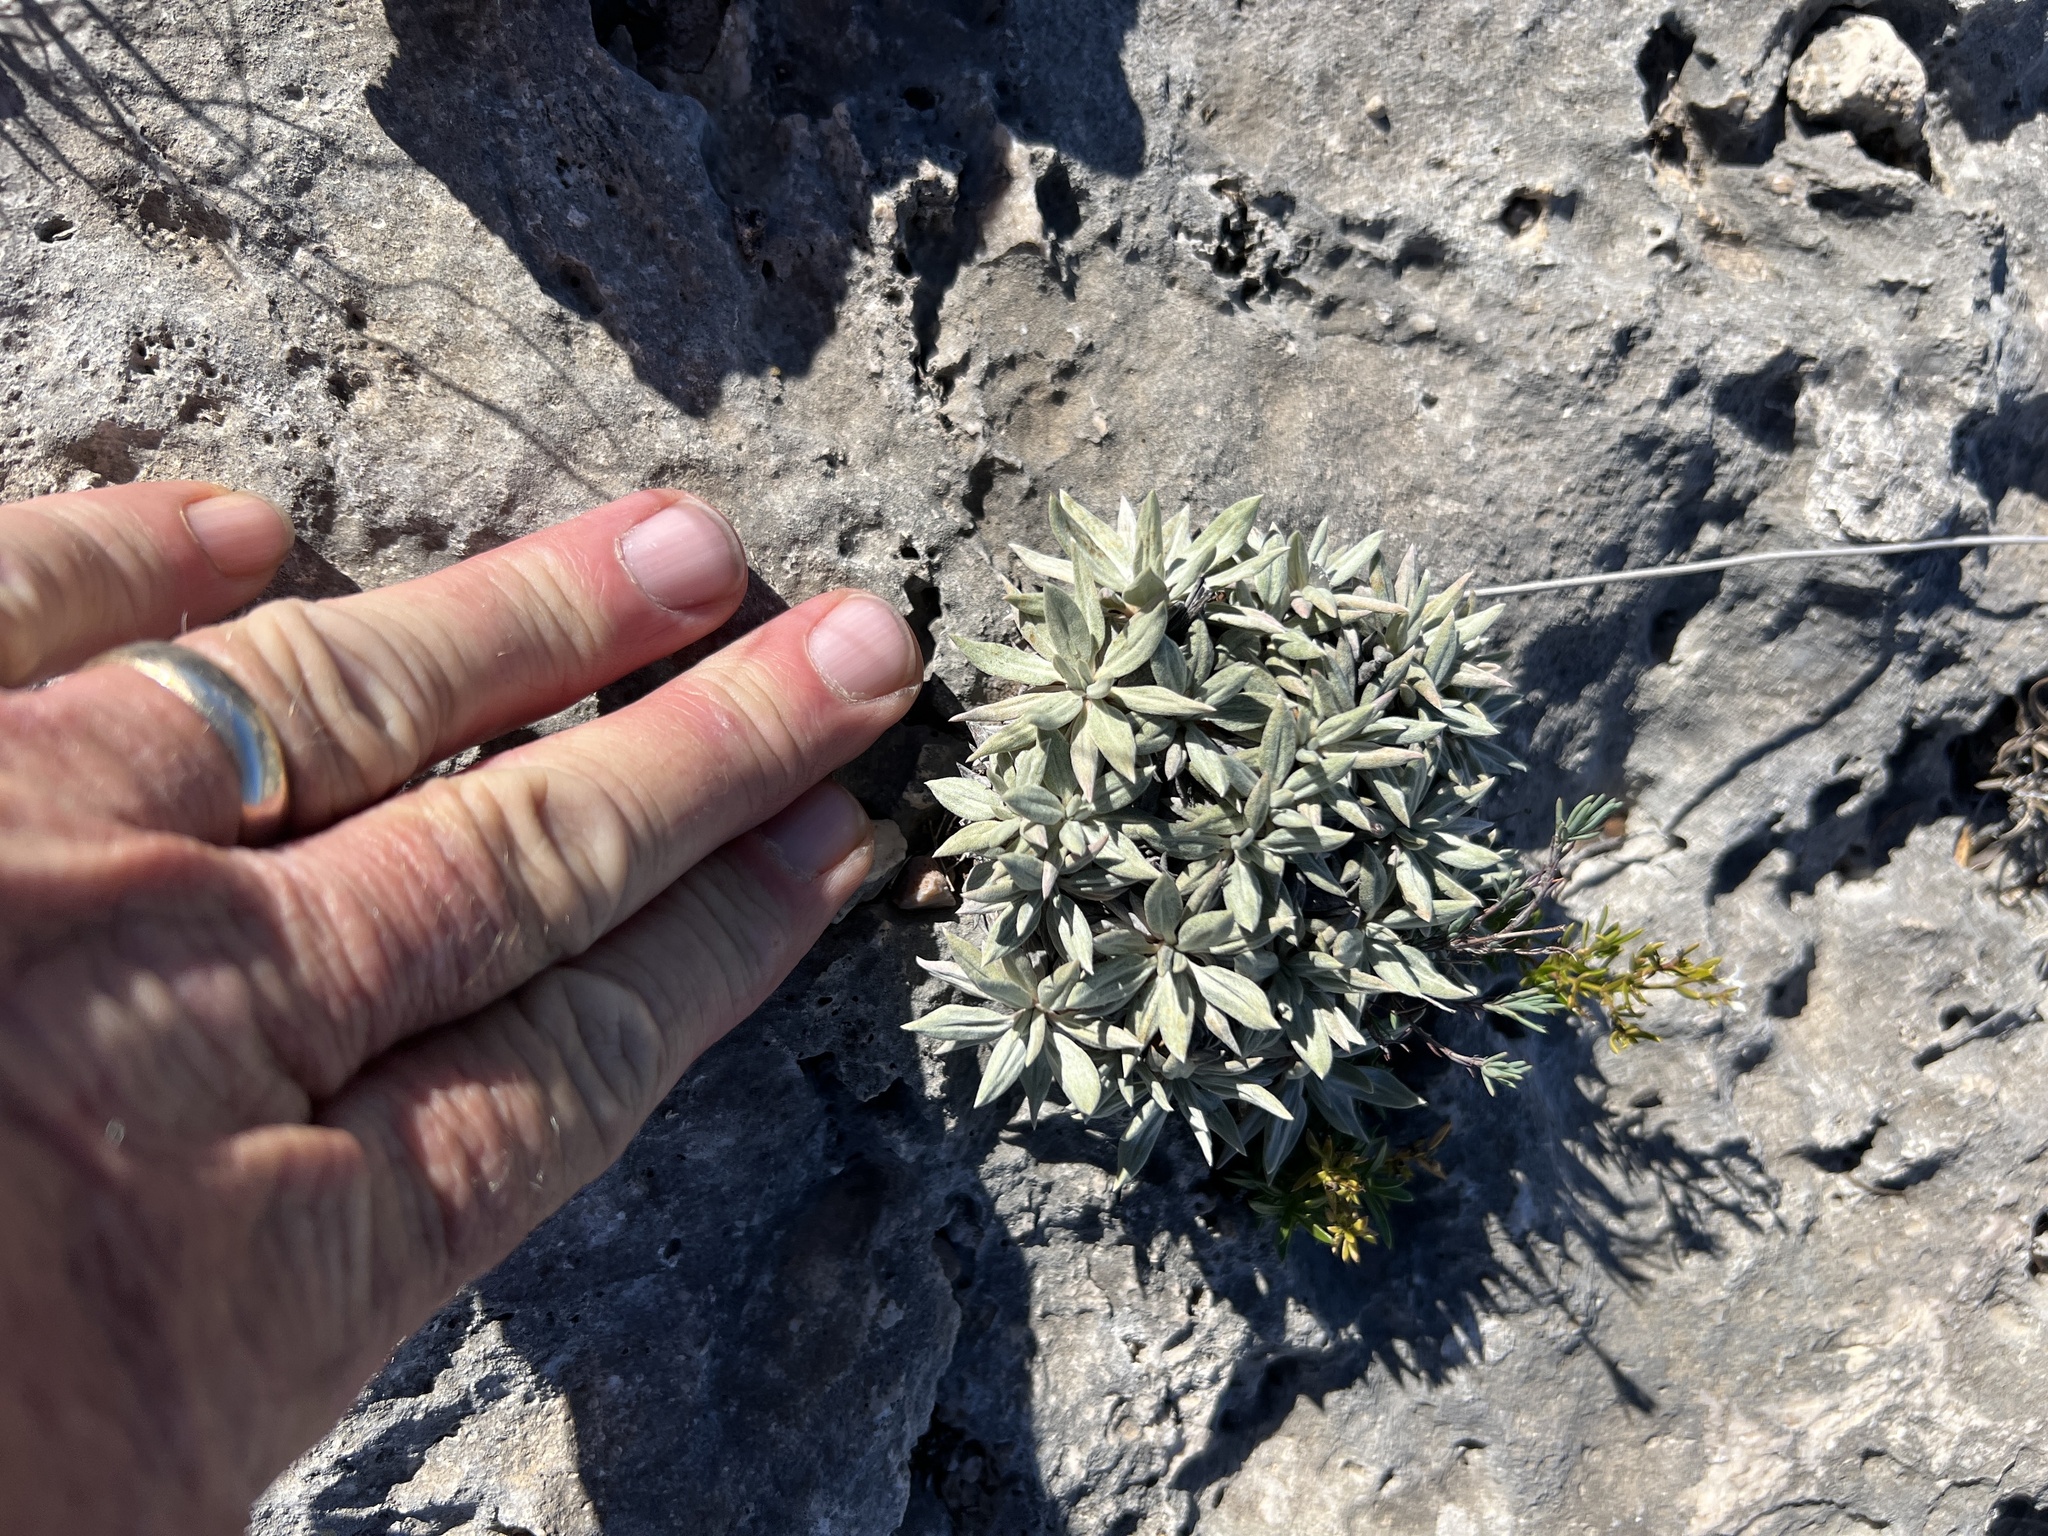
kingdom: Plantae
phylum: Tracheophyta
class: Magnoliopsida
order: Caryophyllales
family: Polygonaceae
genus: Eriogonum
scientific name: Eriogonum havardii
